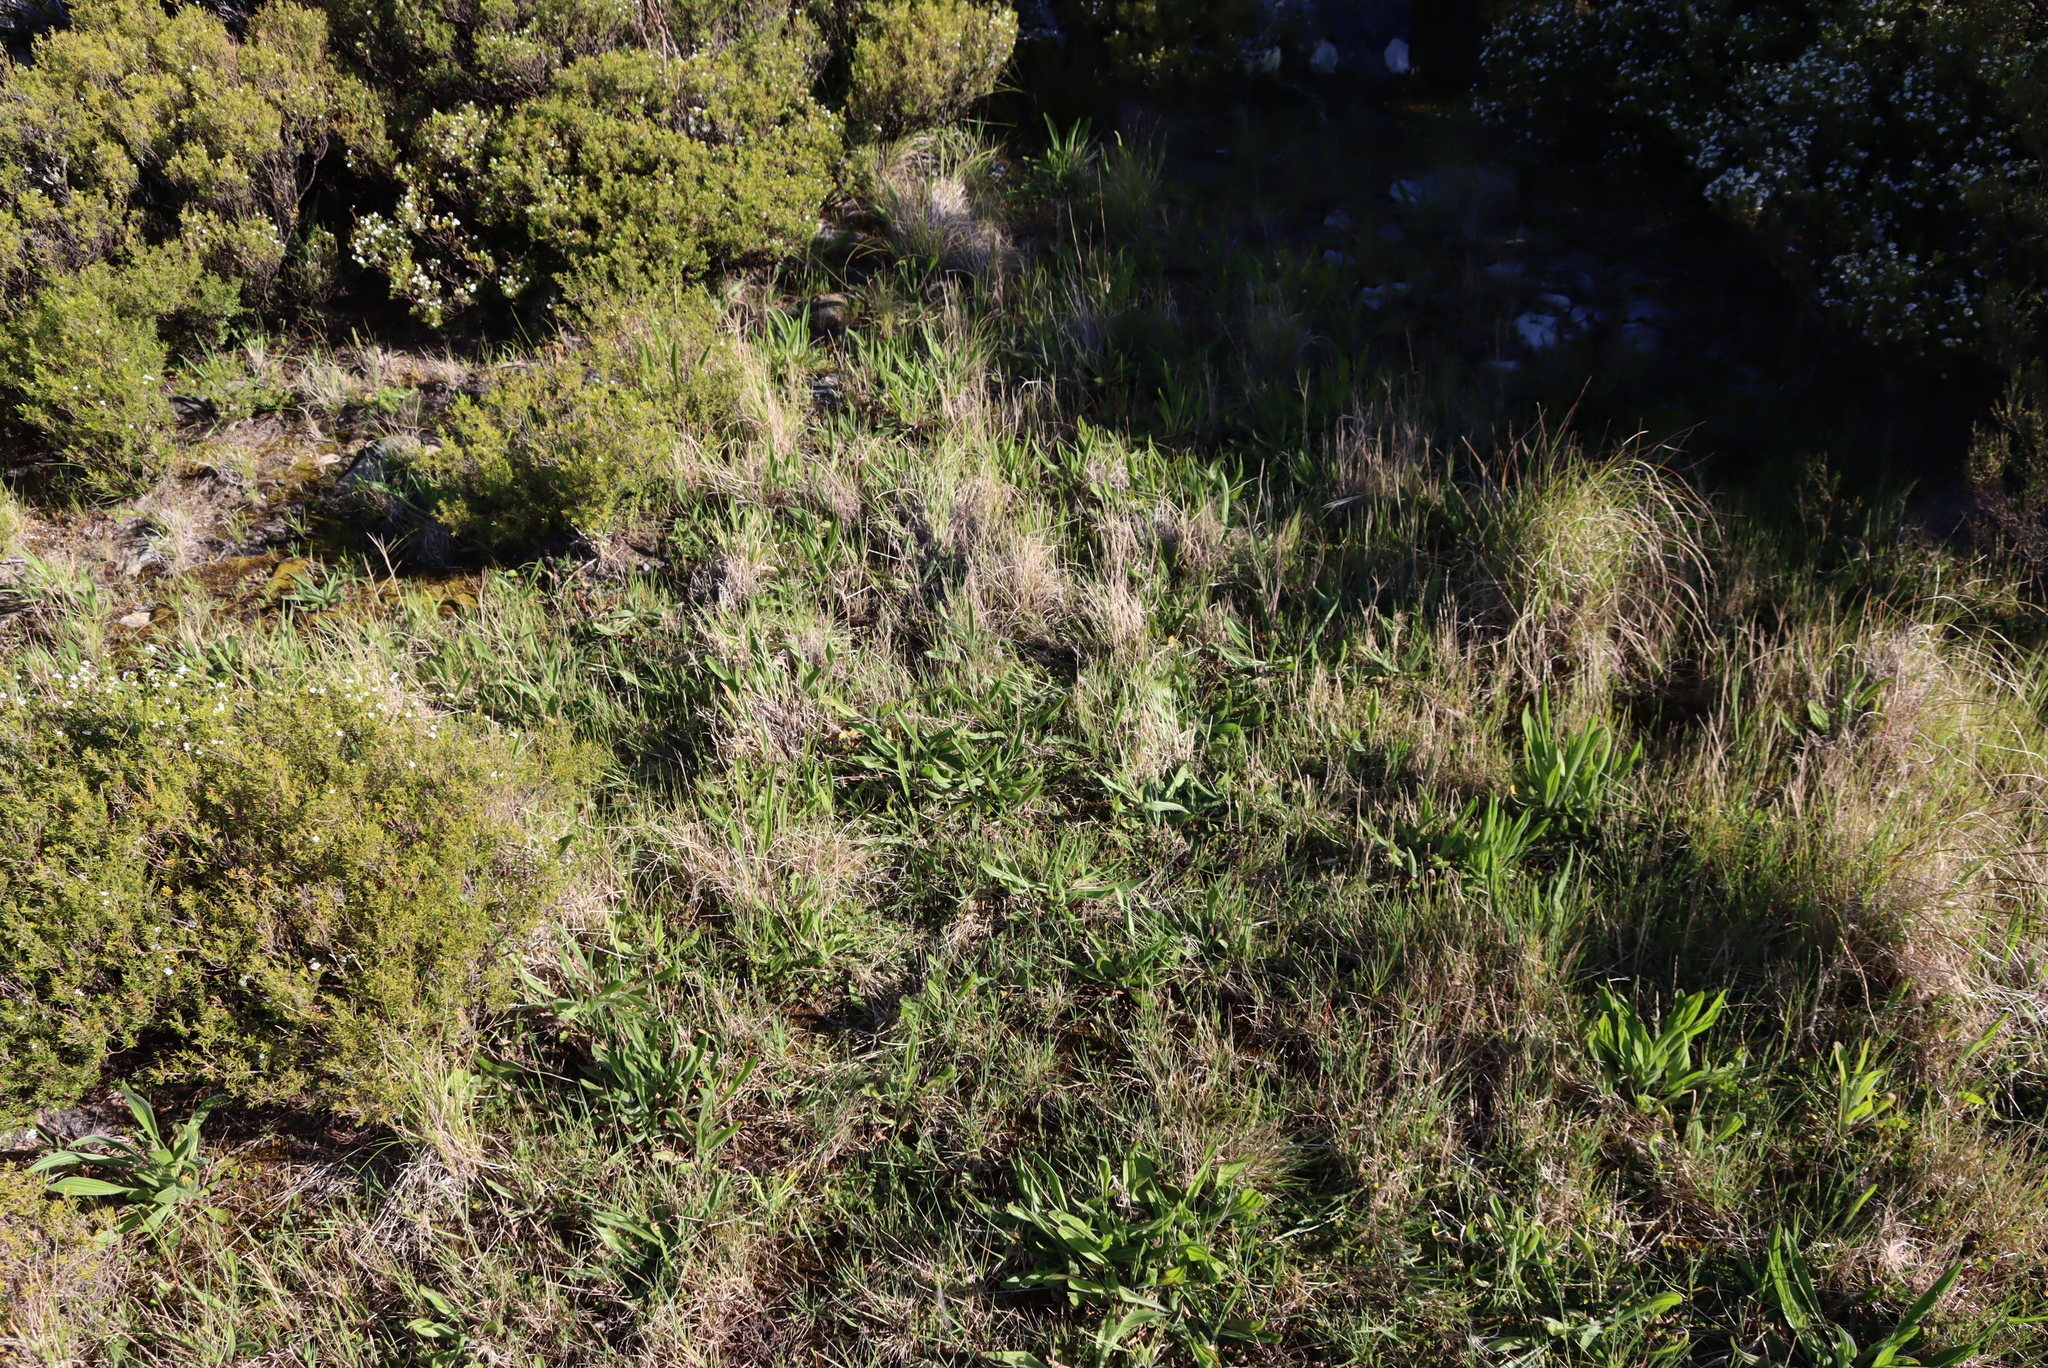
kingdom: Plantae
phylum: Tracheophyta
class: Magnoliopsida
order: Lamiales
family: Plantaginaceae
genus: Plantago
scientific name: Plantago lanceolata
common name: Ribwort plantain
